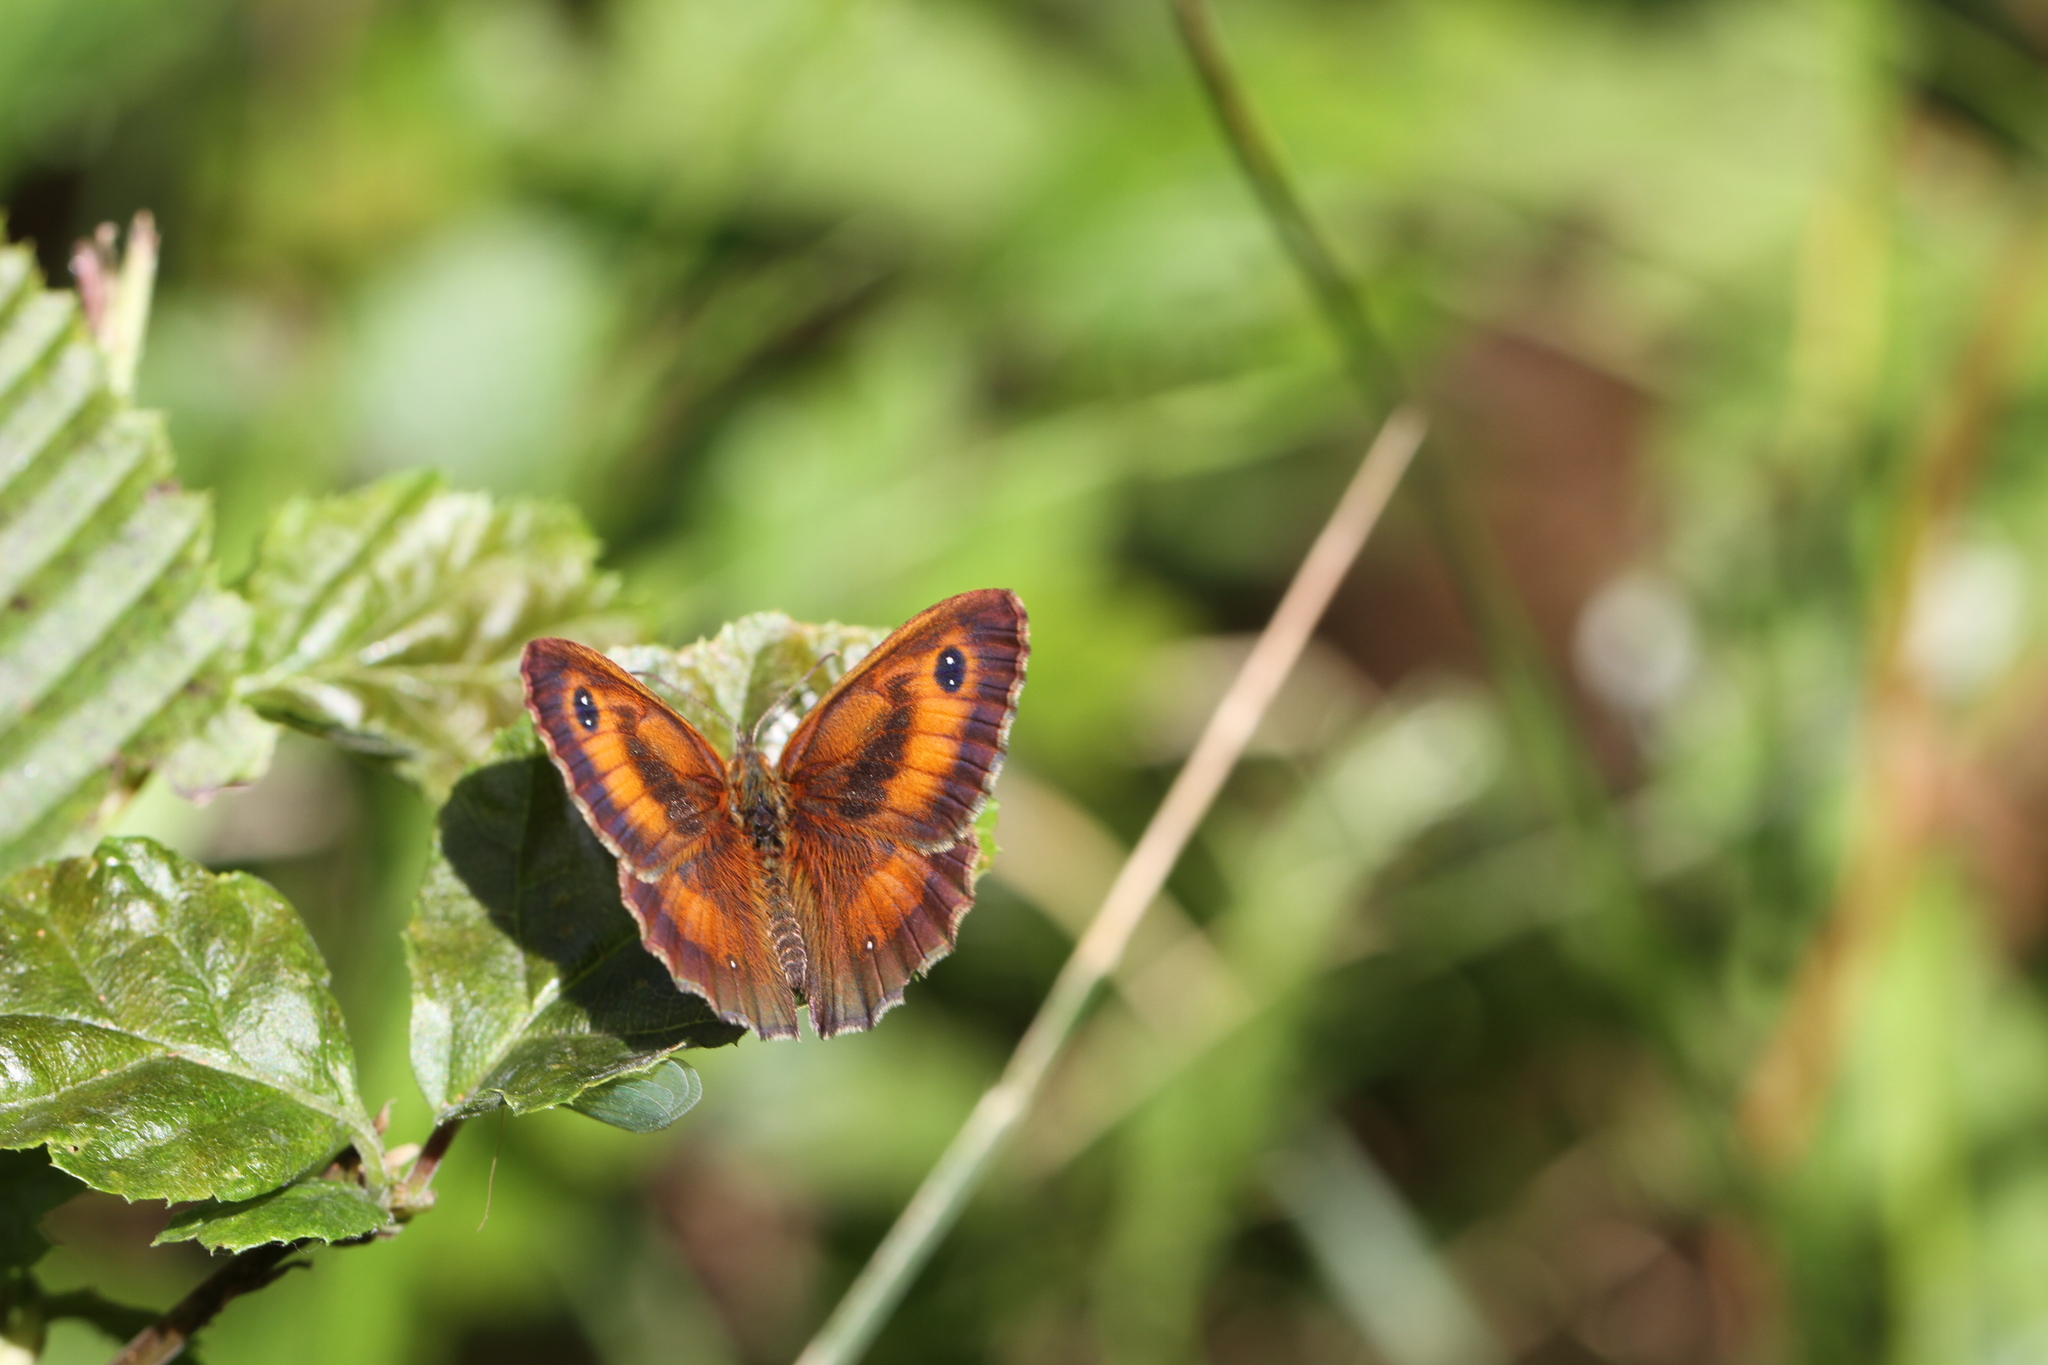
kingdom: Animalia
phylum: Arthropoda
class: Insecta
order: Lepidoptera
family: Nymphalidae
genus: Pyronia
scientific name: Pyronia tithonus
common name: Gatekeeper
